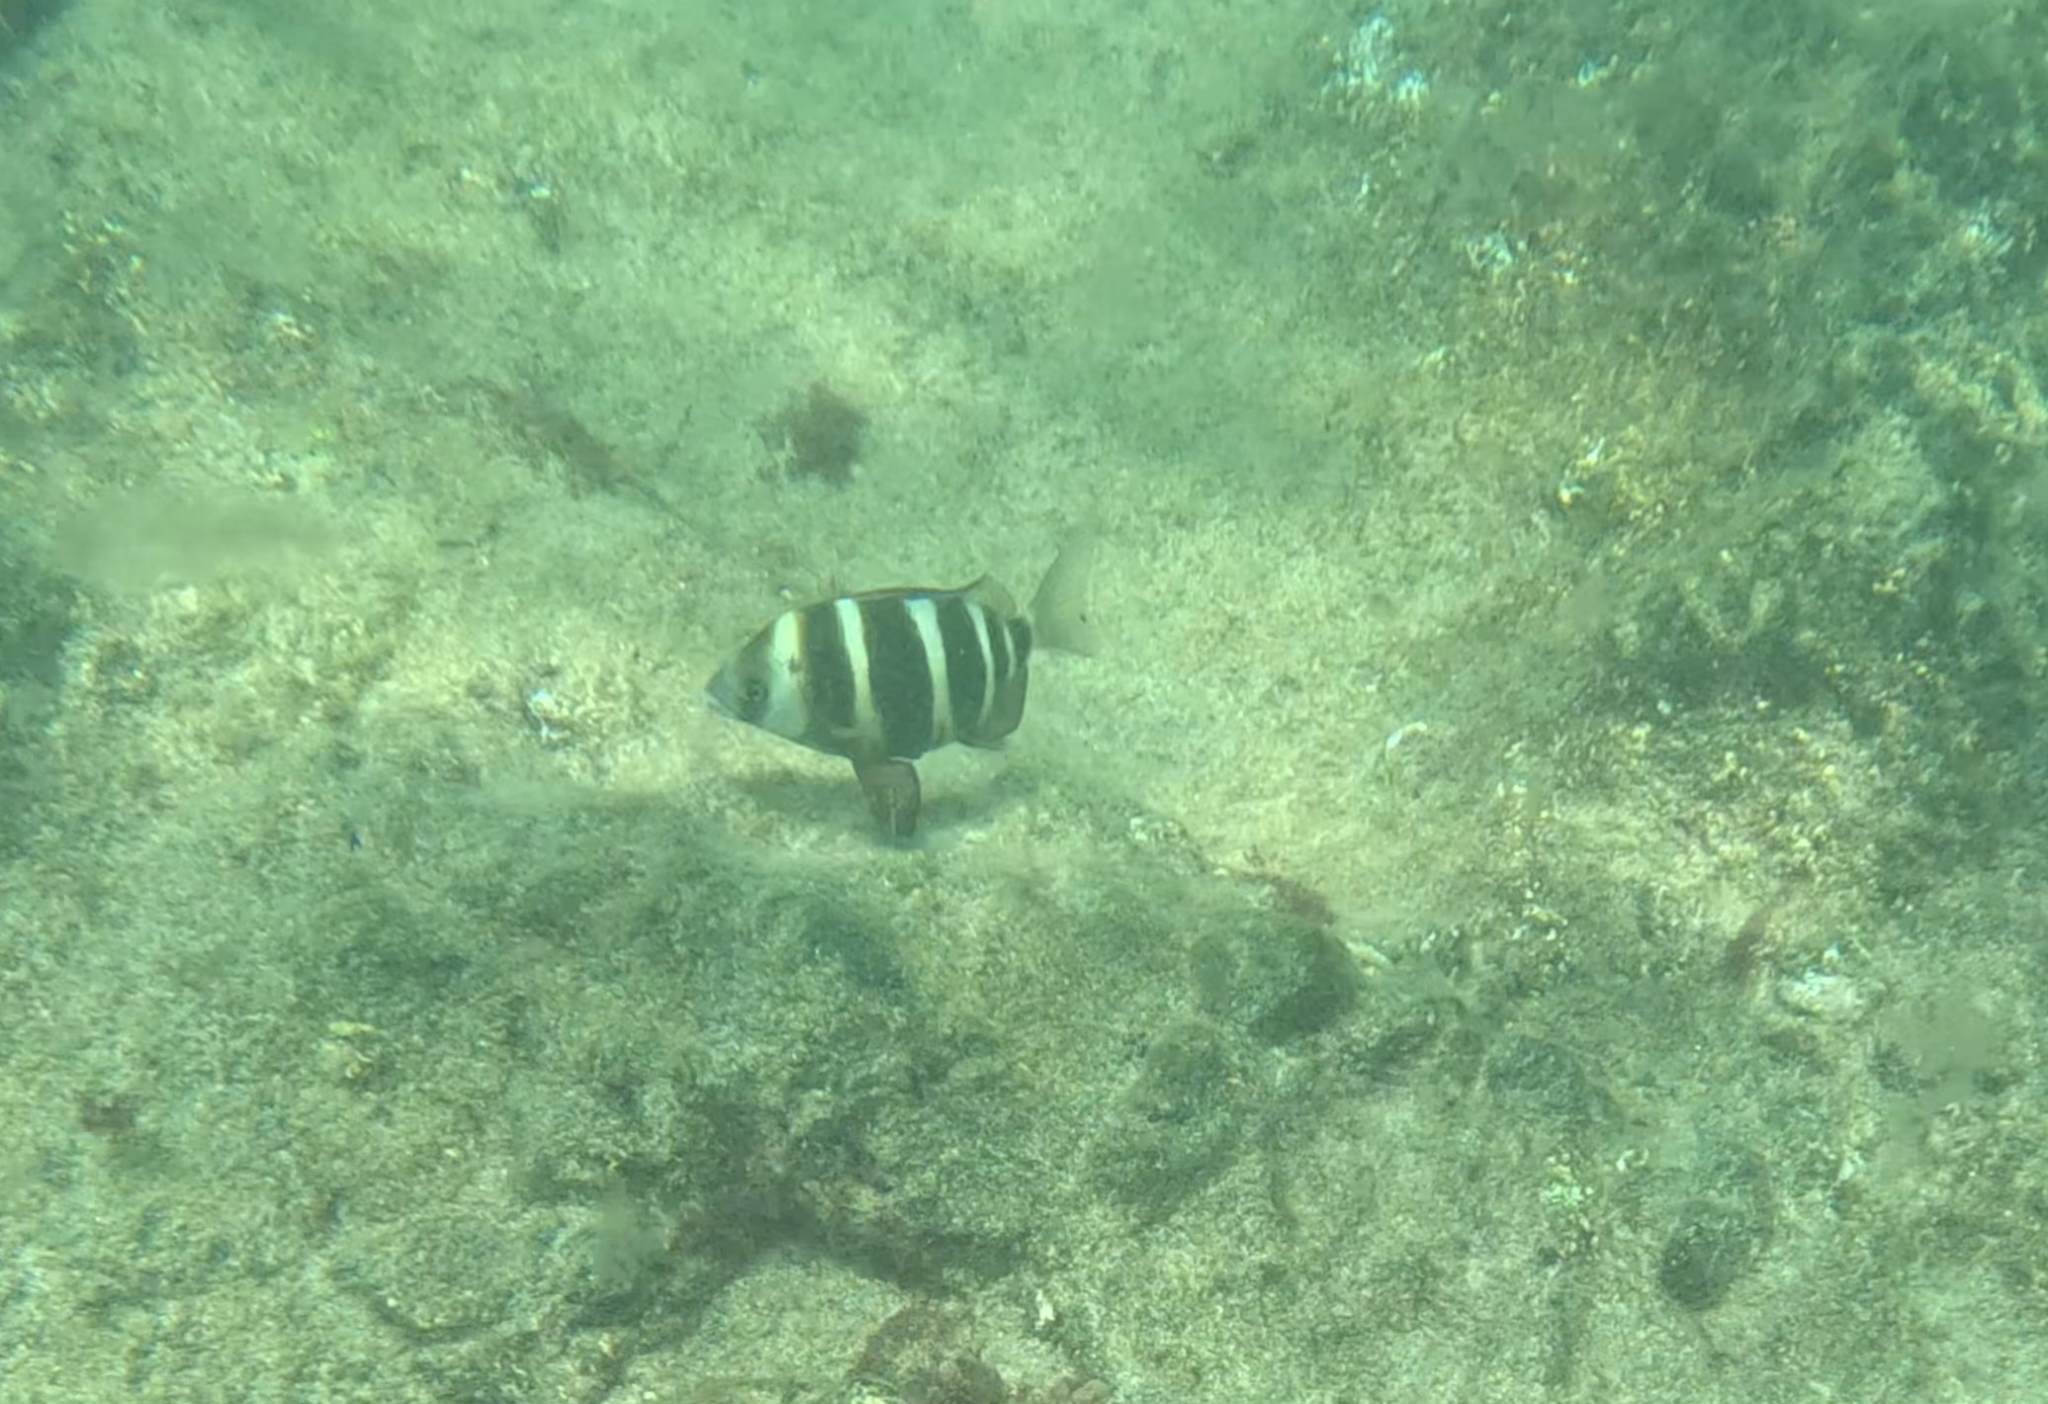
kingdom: Animalia
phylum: Chordata
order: Perciformes
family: Sparidae
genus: Diplodus
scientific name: Diplodus cervinus
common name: Oman porgy
